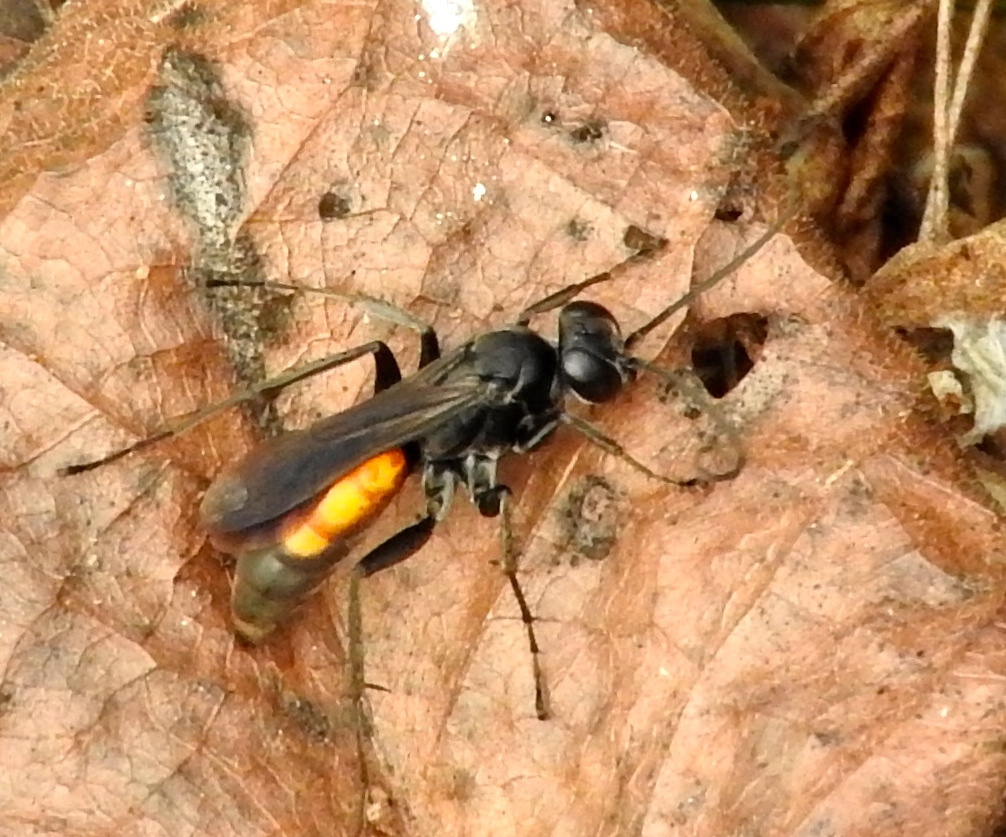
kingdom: Animalia
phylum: Arthropoda
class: Insecta
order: Hymenoptera
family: Pompilidae
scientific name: Pompilidae
